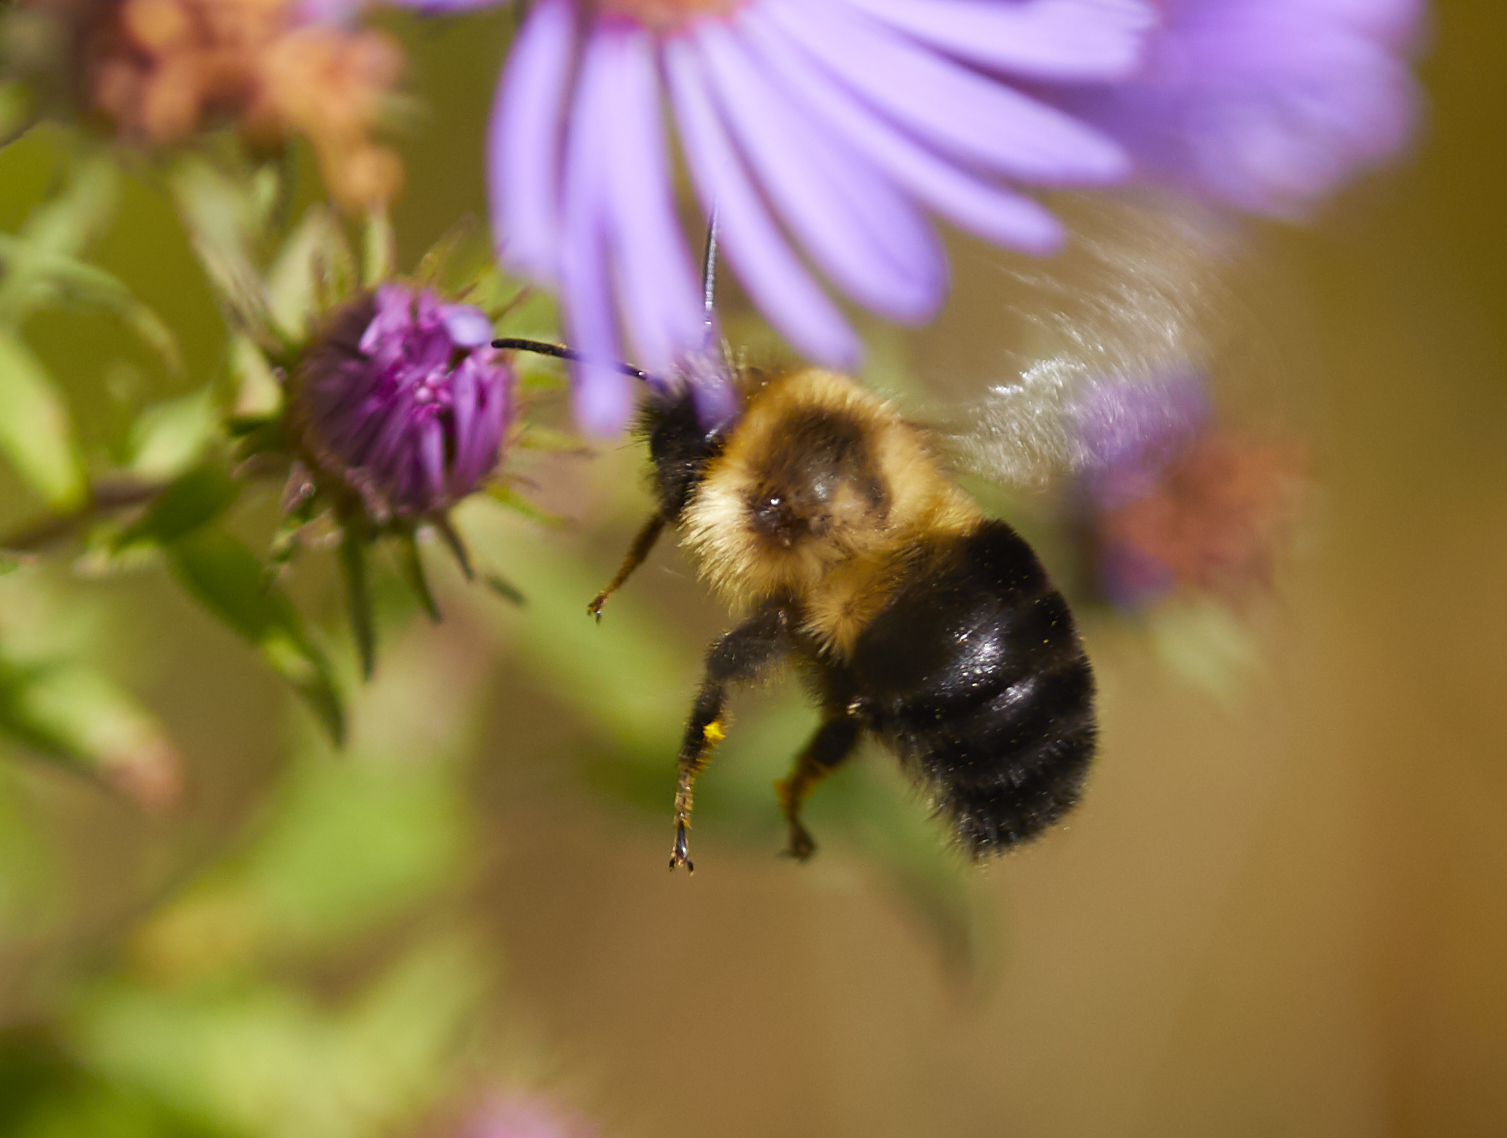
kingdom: Animalia
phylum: Arthropoda
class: Insecta
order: Hymenoptera
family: Apidae
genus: Bombus
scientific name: Bombus impatiens
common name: Common eastern bumble bee
